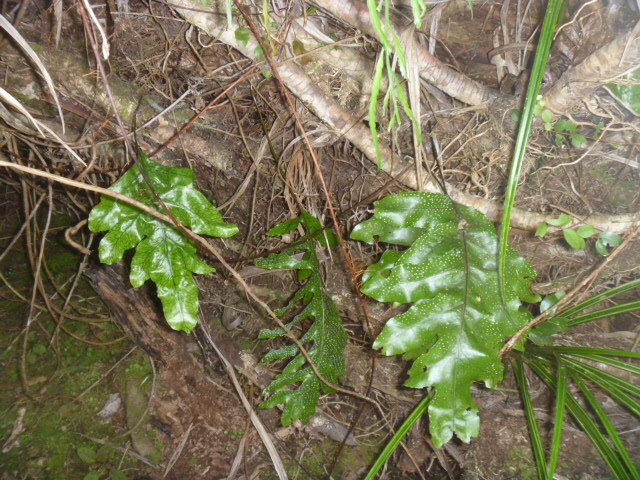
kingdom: Plantae
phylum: Tracheophyta
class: Polypodiopsida
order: Polypodiales
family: Polypodiaceae
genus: Lecanopteris
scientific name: Lecanopteris pustulata
